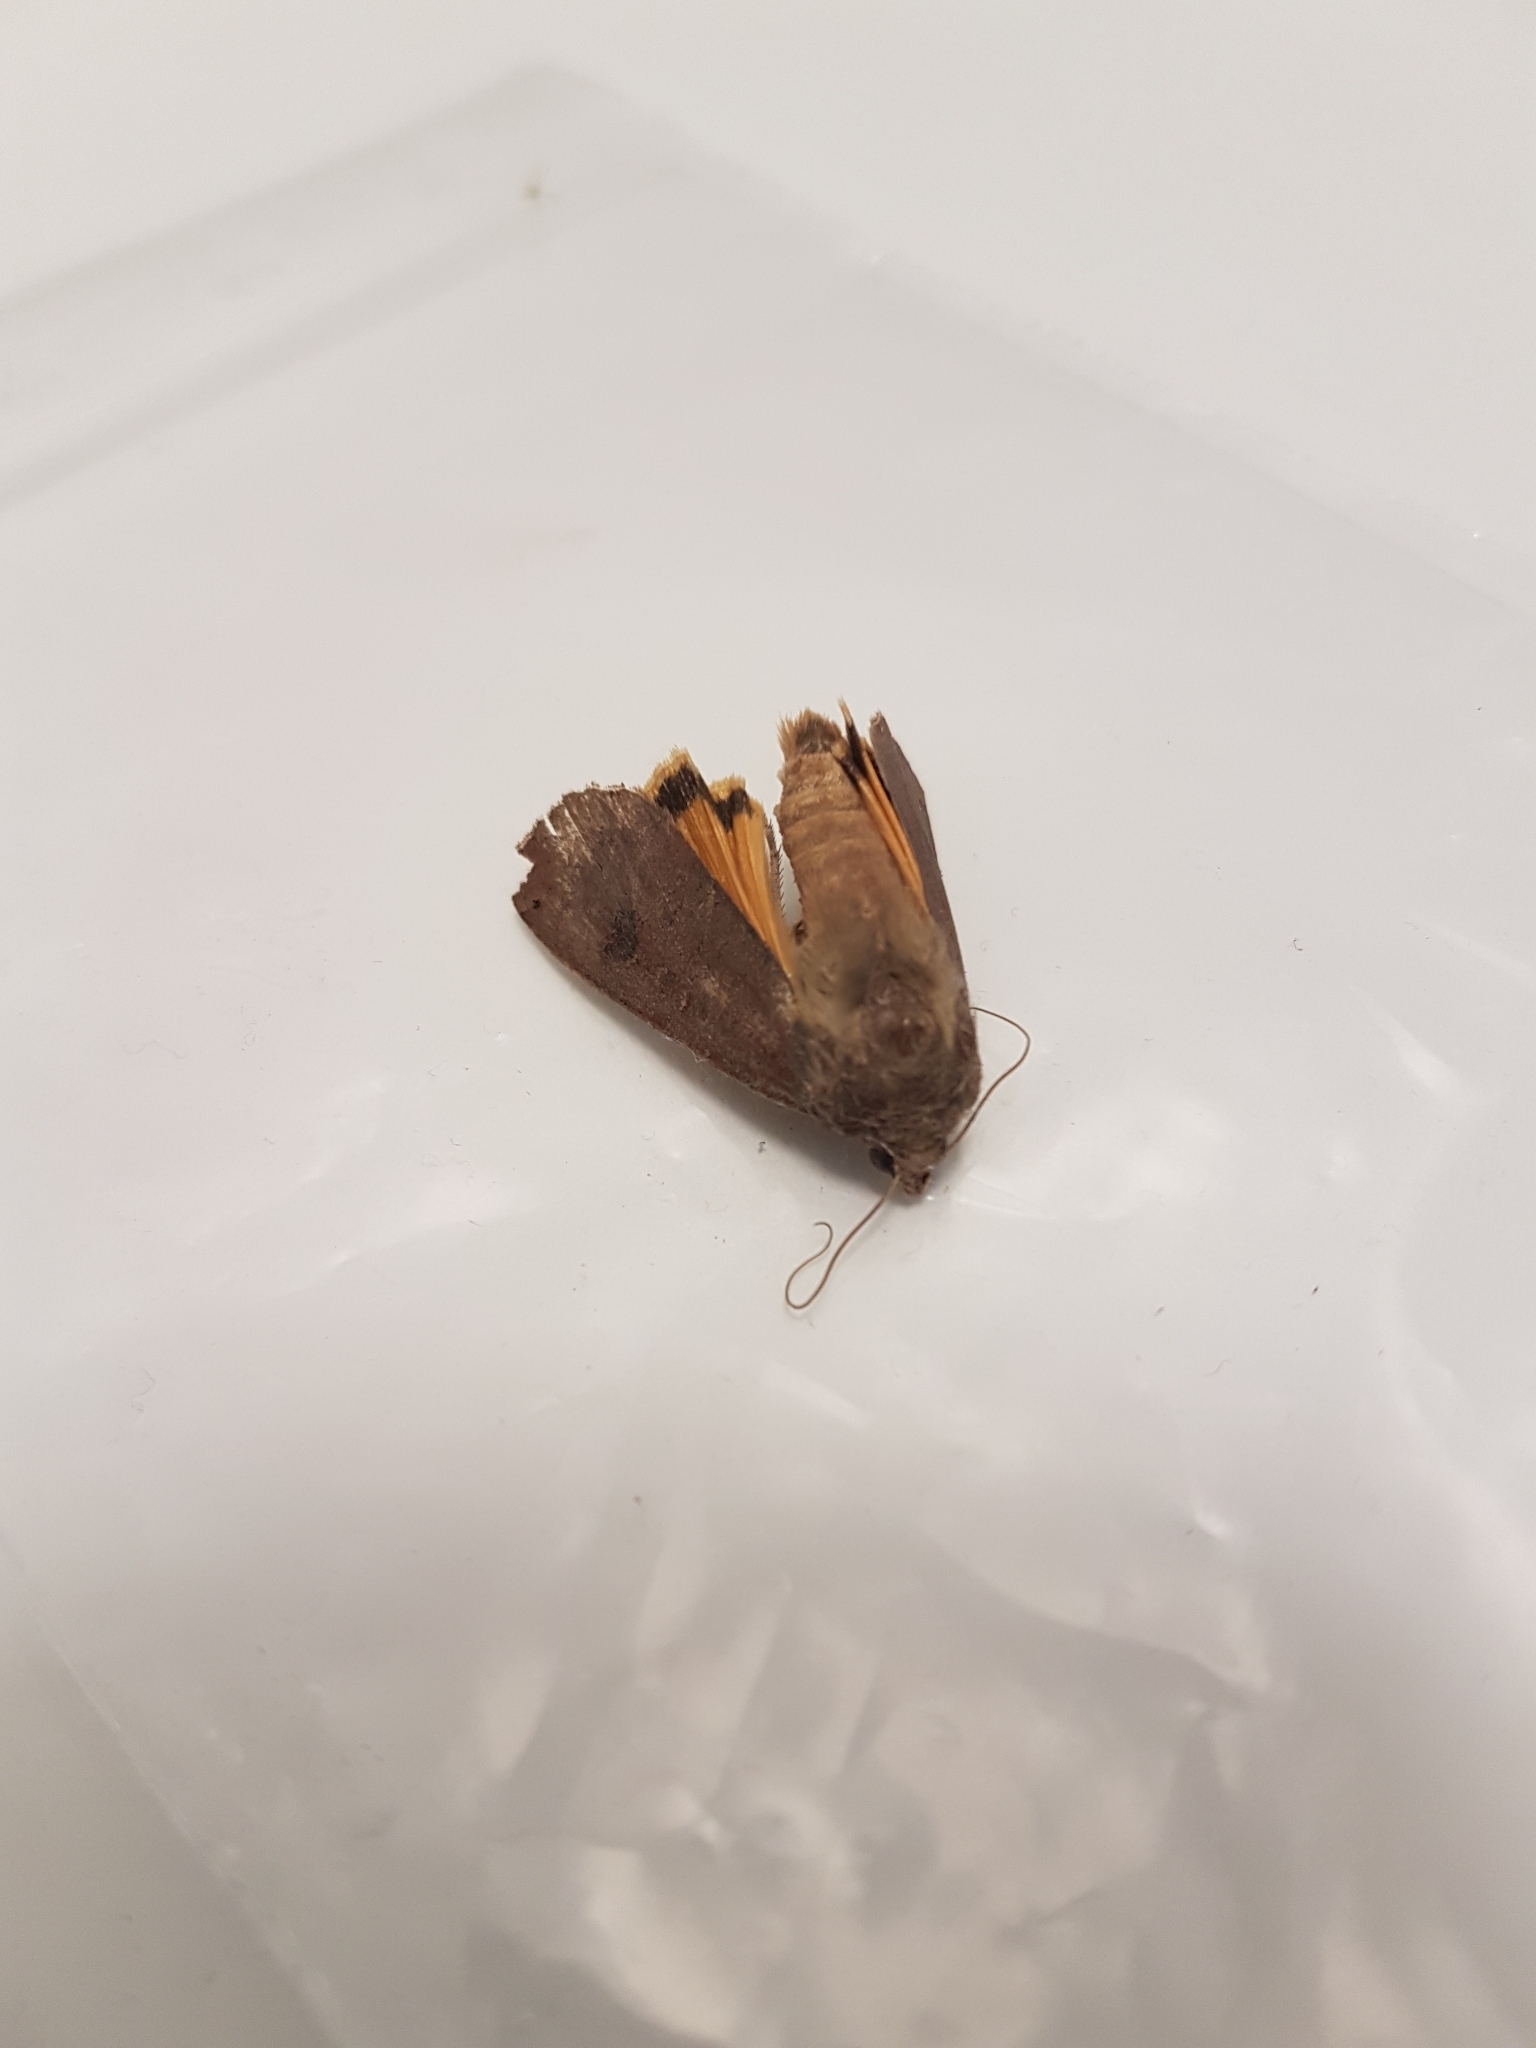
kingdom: Animalia
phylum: Arthropoda
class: Insecta
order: Lepidoptera
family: Noctuidae
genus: Noctua
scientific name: Noctua pronuba
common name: Large yellow underwing
